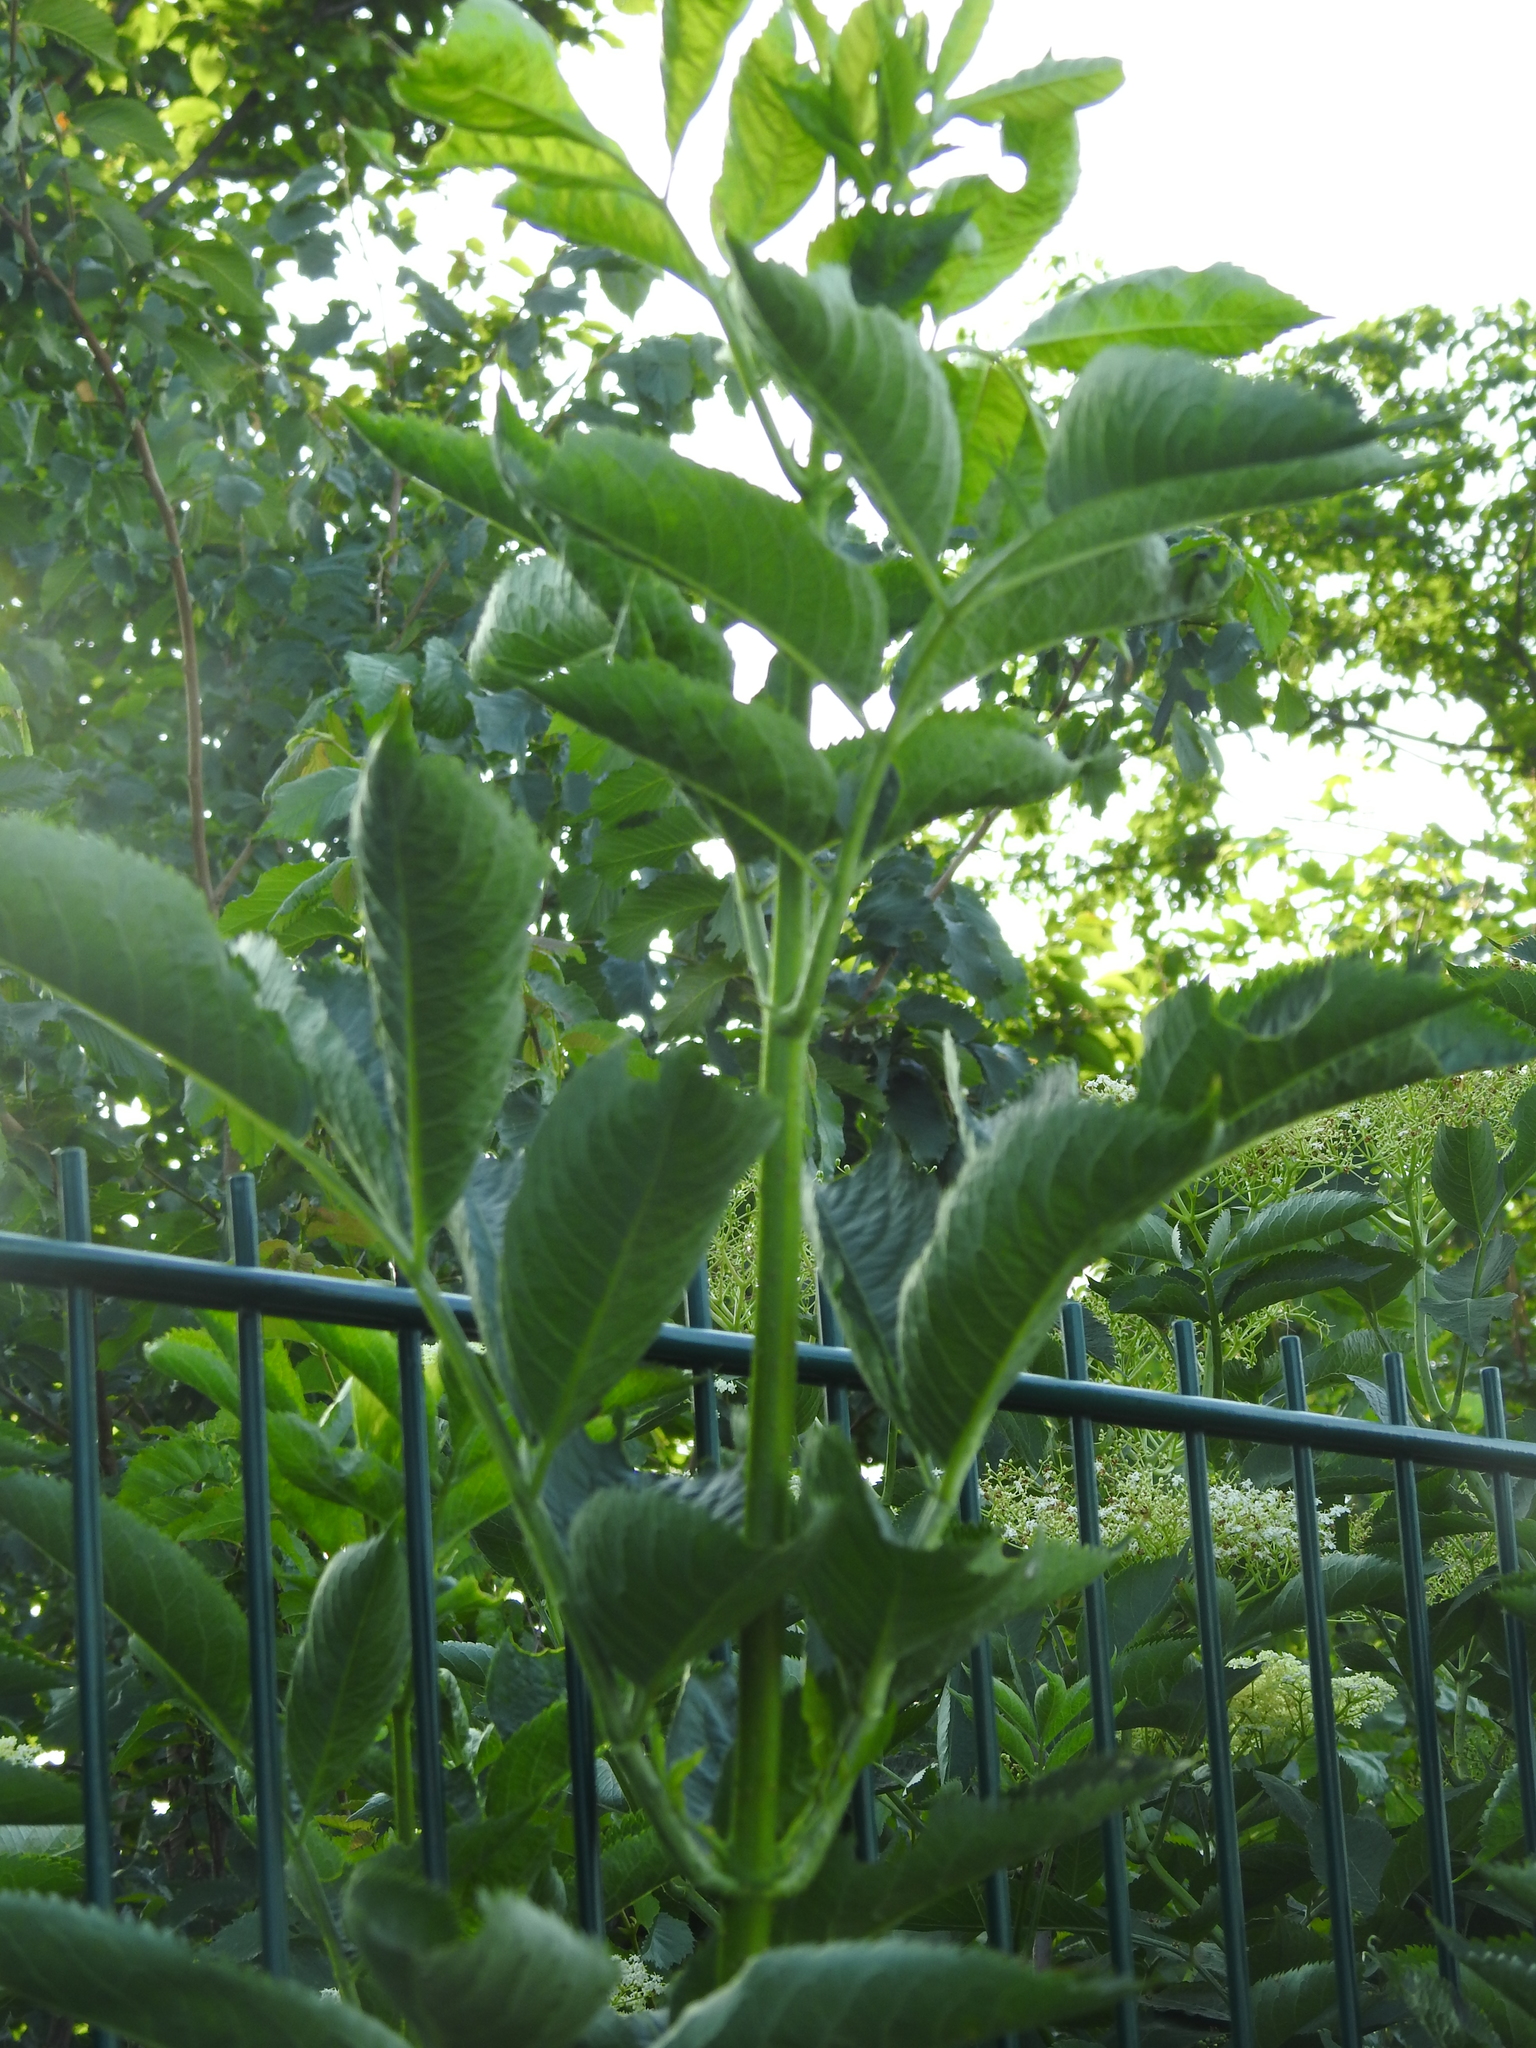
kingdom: Plantae
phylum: Tracheophyta
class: Magnoliopsida
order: Dipsacales
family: Viburnaceae
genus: Sambucus
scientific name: Sambucus nigra
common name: Elder
